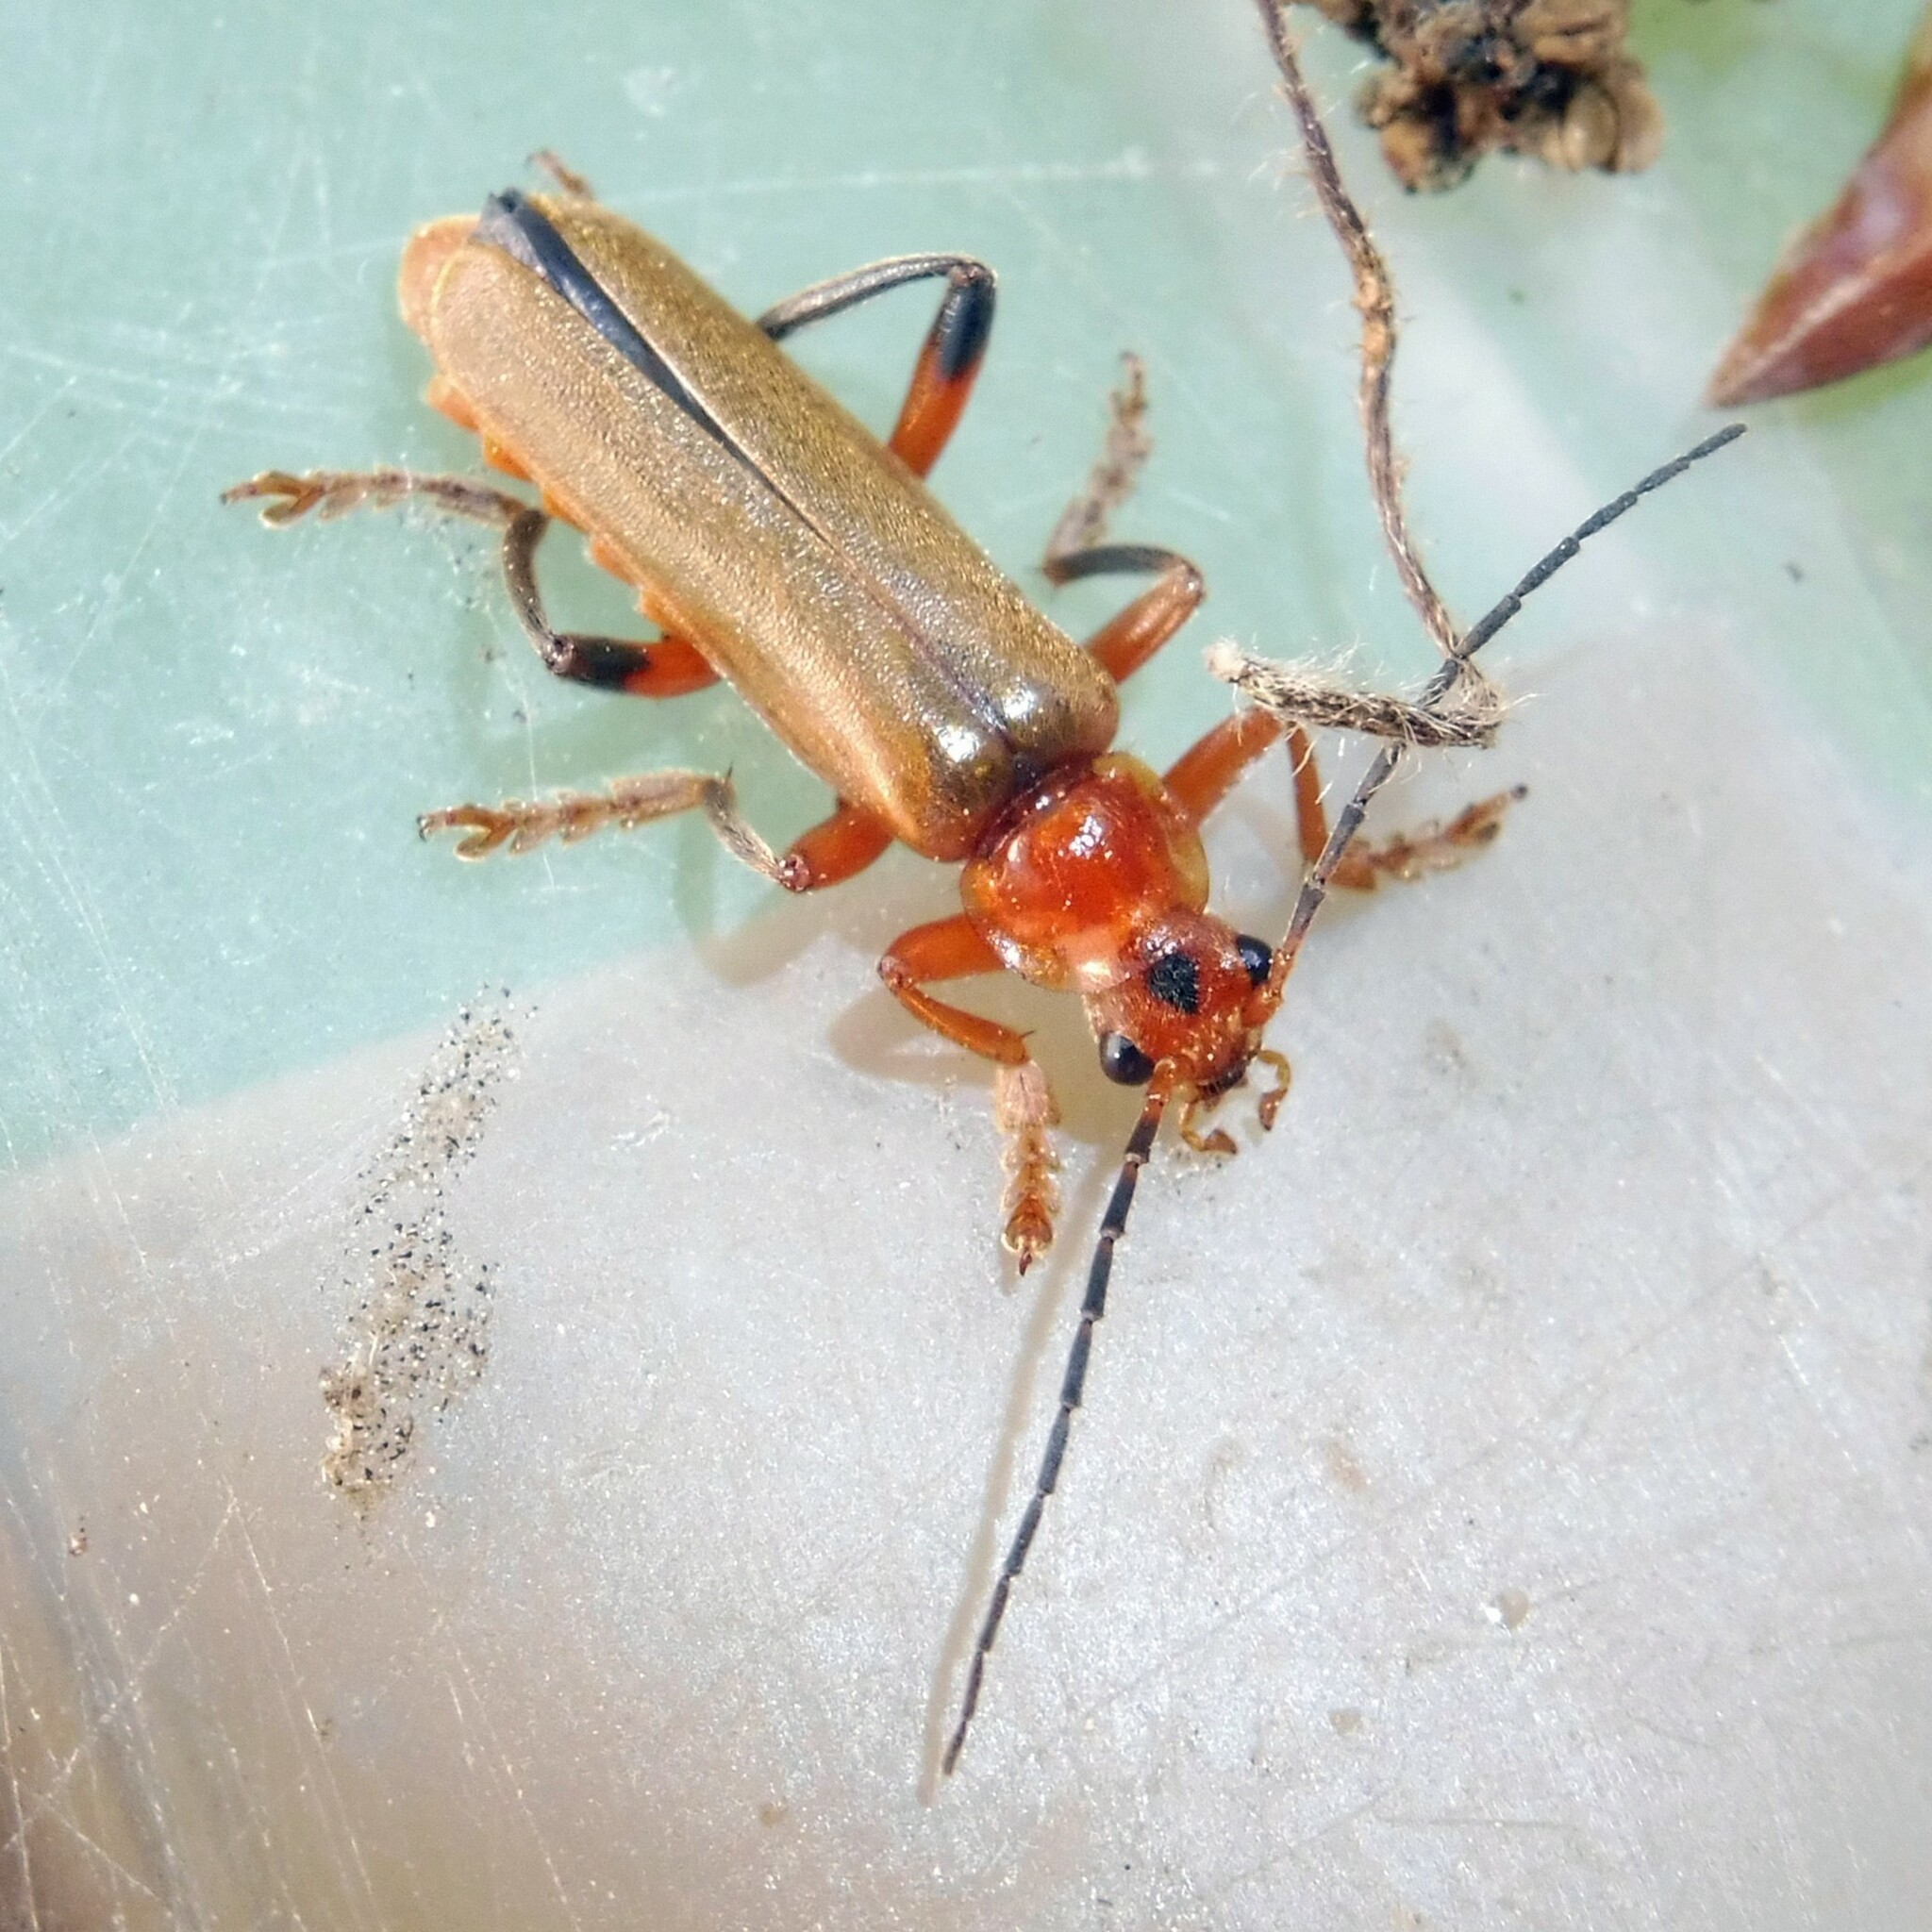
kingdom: Animalia
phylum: Arthropoda
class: Insecta
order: Coleoptera
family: Cantharidae
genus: Cantharis
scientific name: Cantharis livida
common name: Livid soldier beetle
